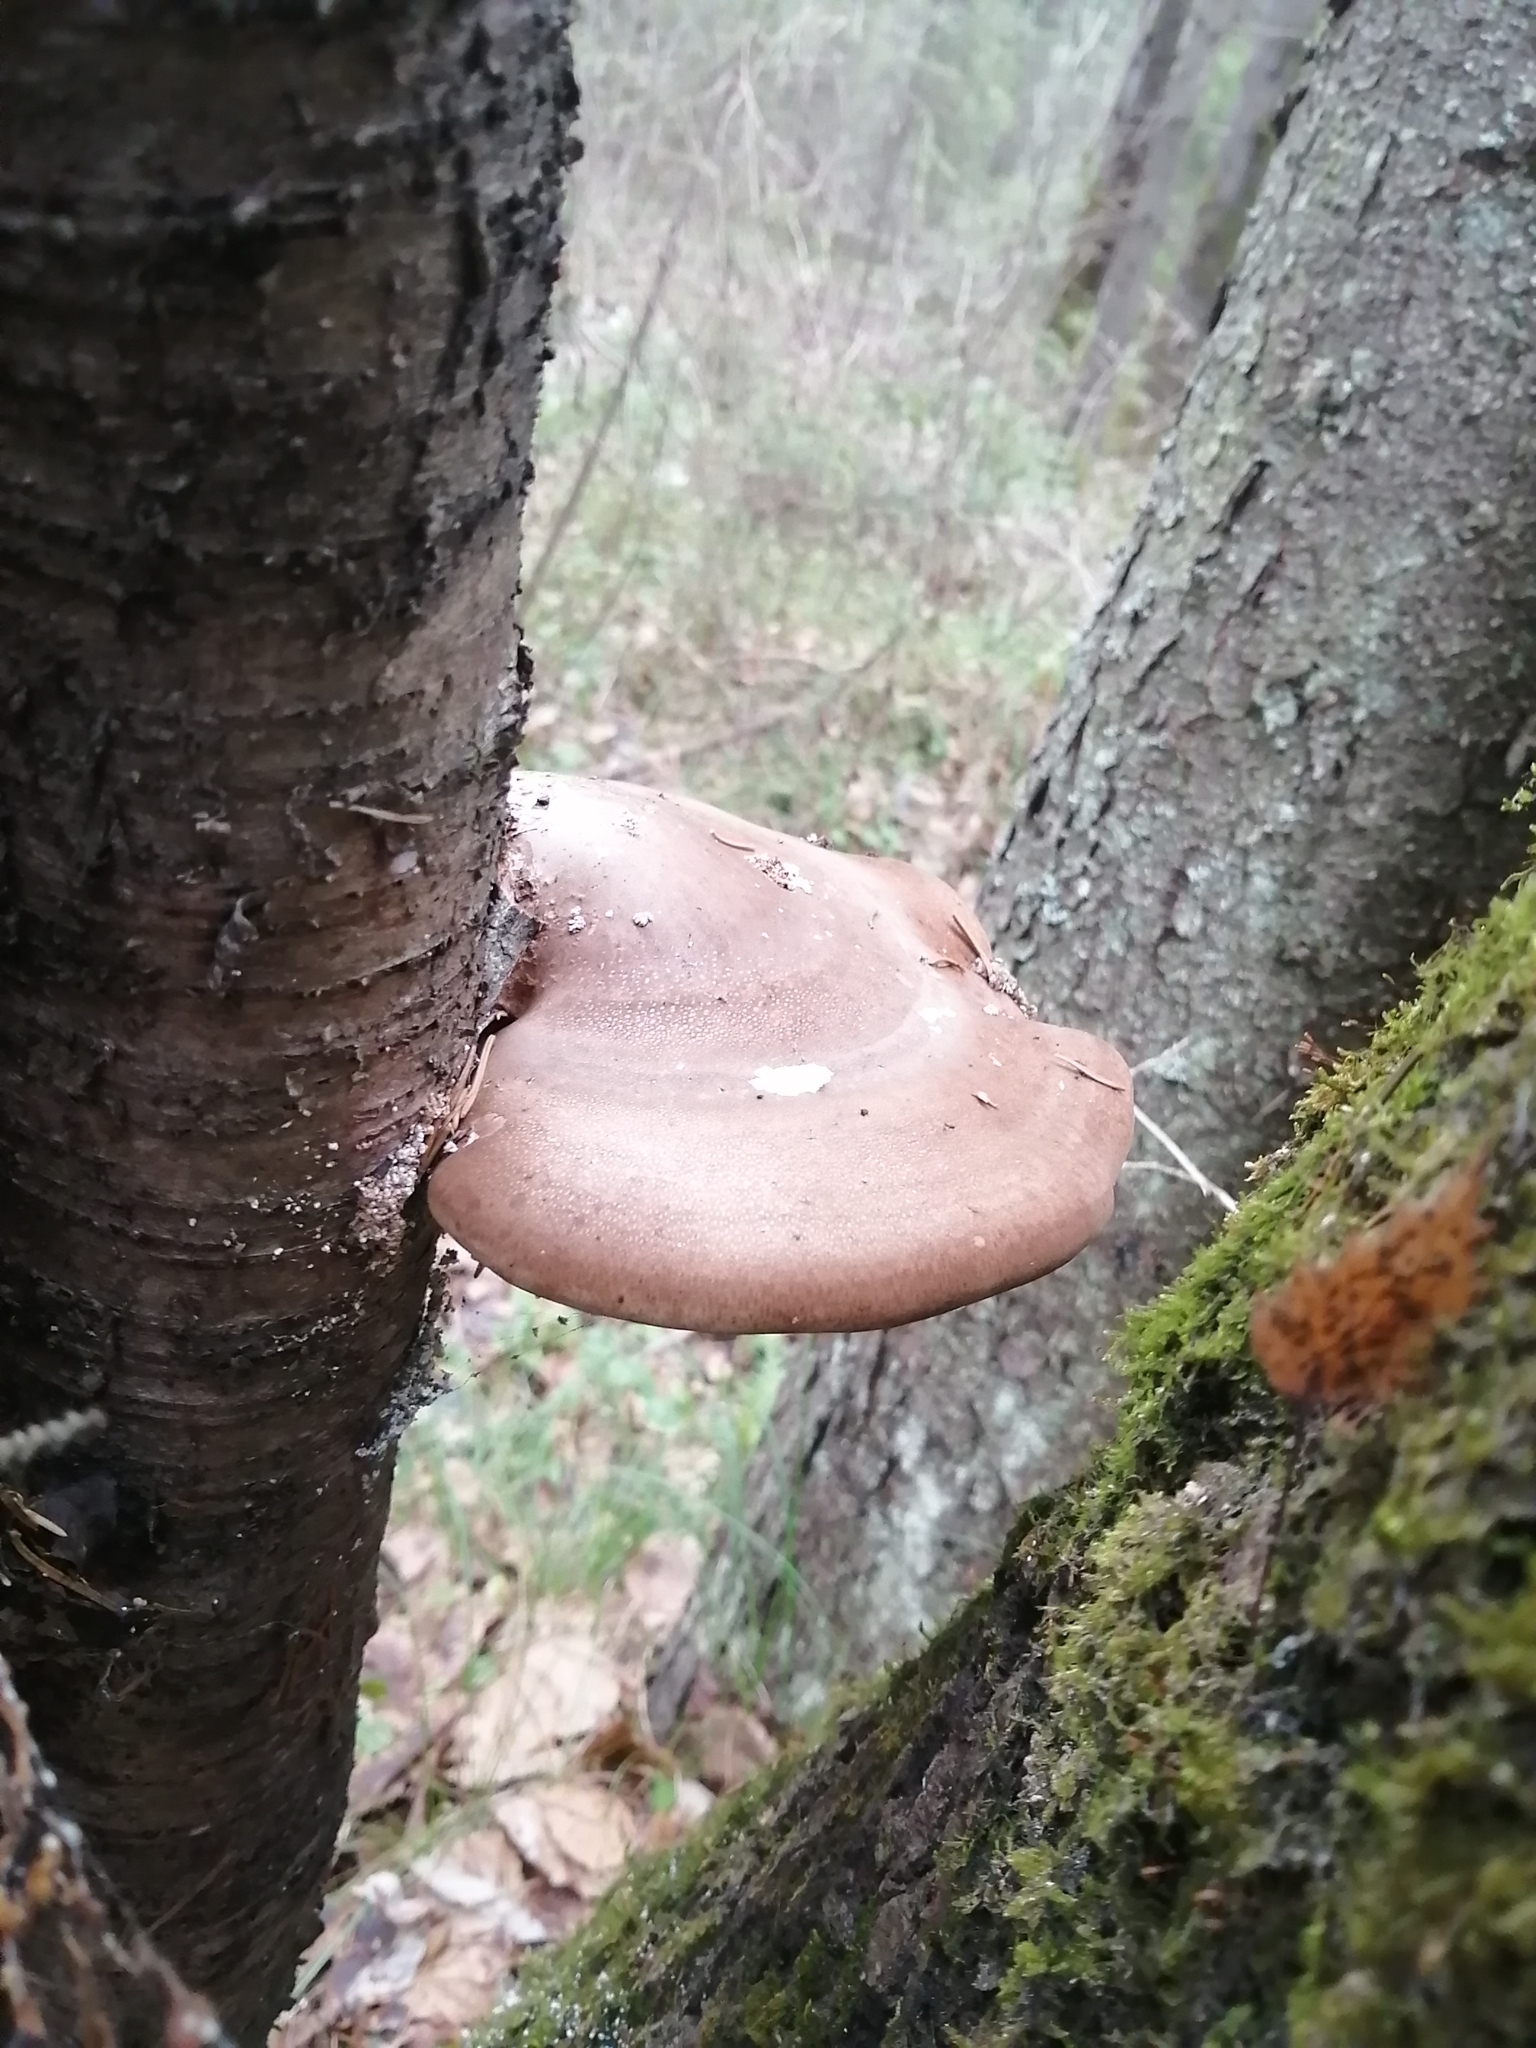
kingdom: Fungi
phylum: Basidiomycota
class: Agaricomycetes
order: Polyporales
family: Fomitopsidaceae
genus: Fomitopsis
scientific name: Fomitopsis betulina
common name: Birch polypore
